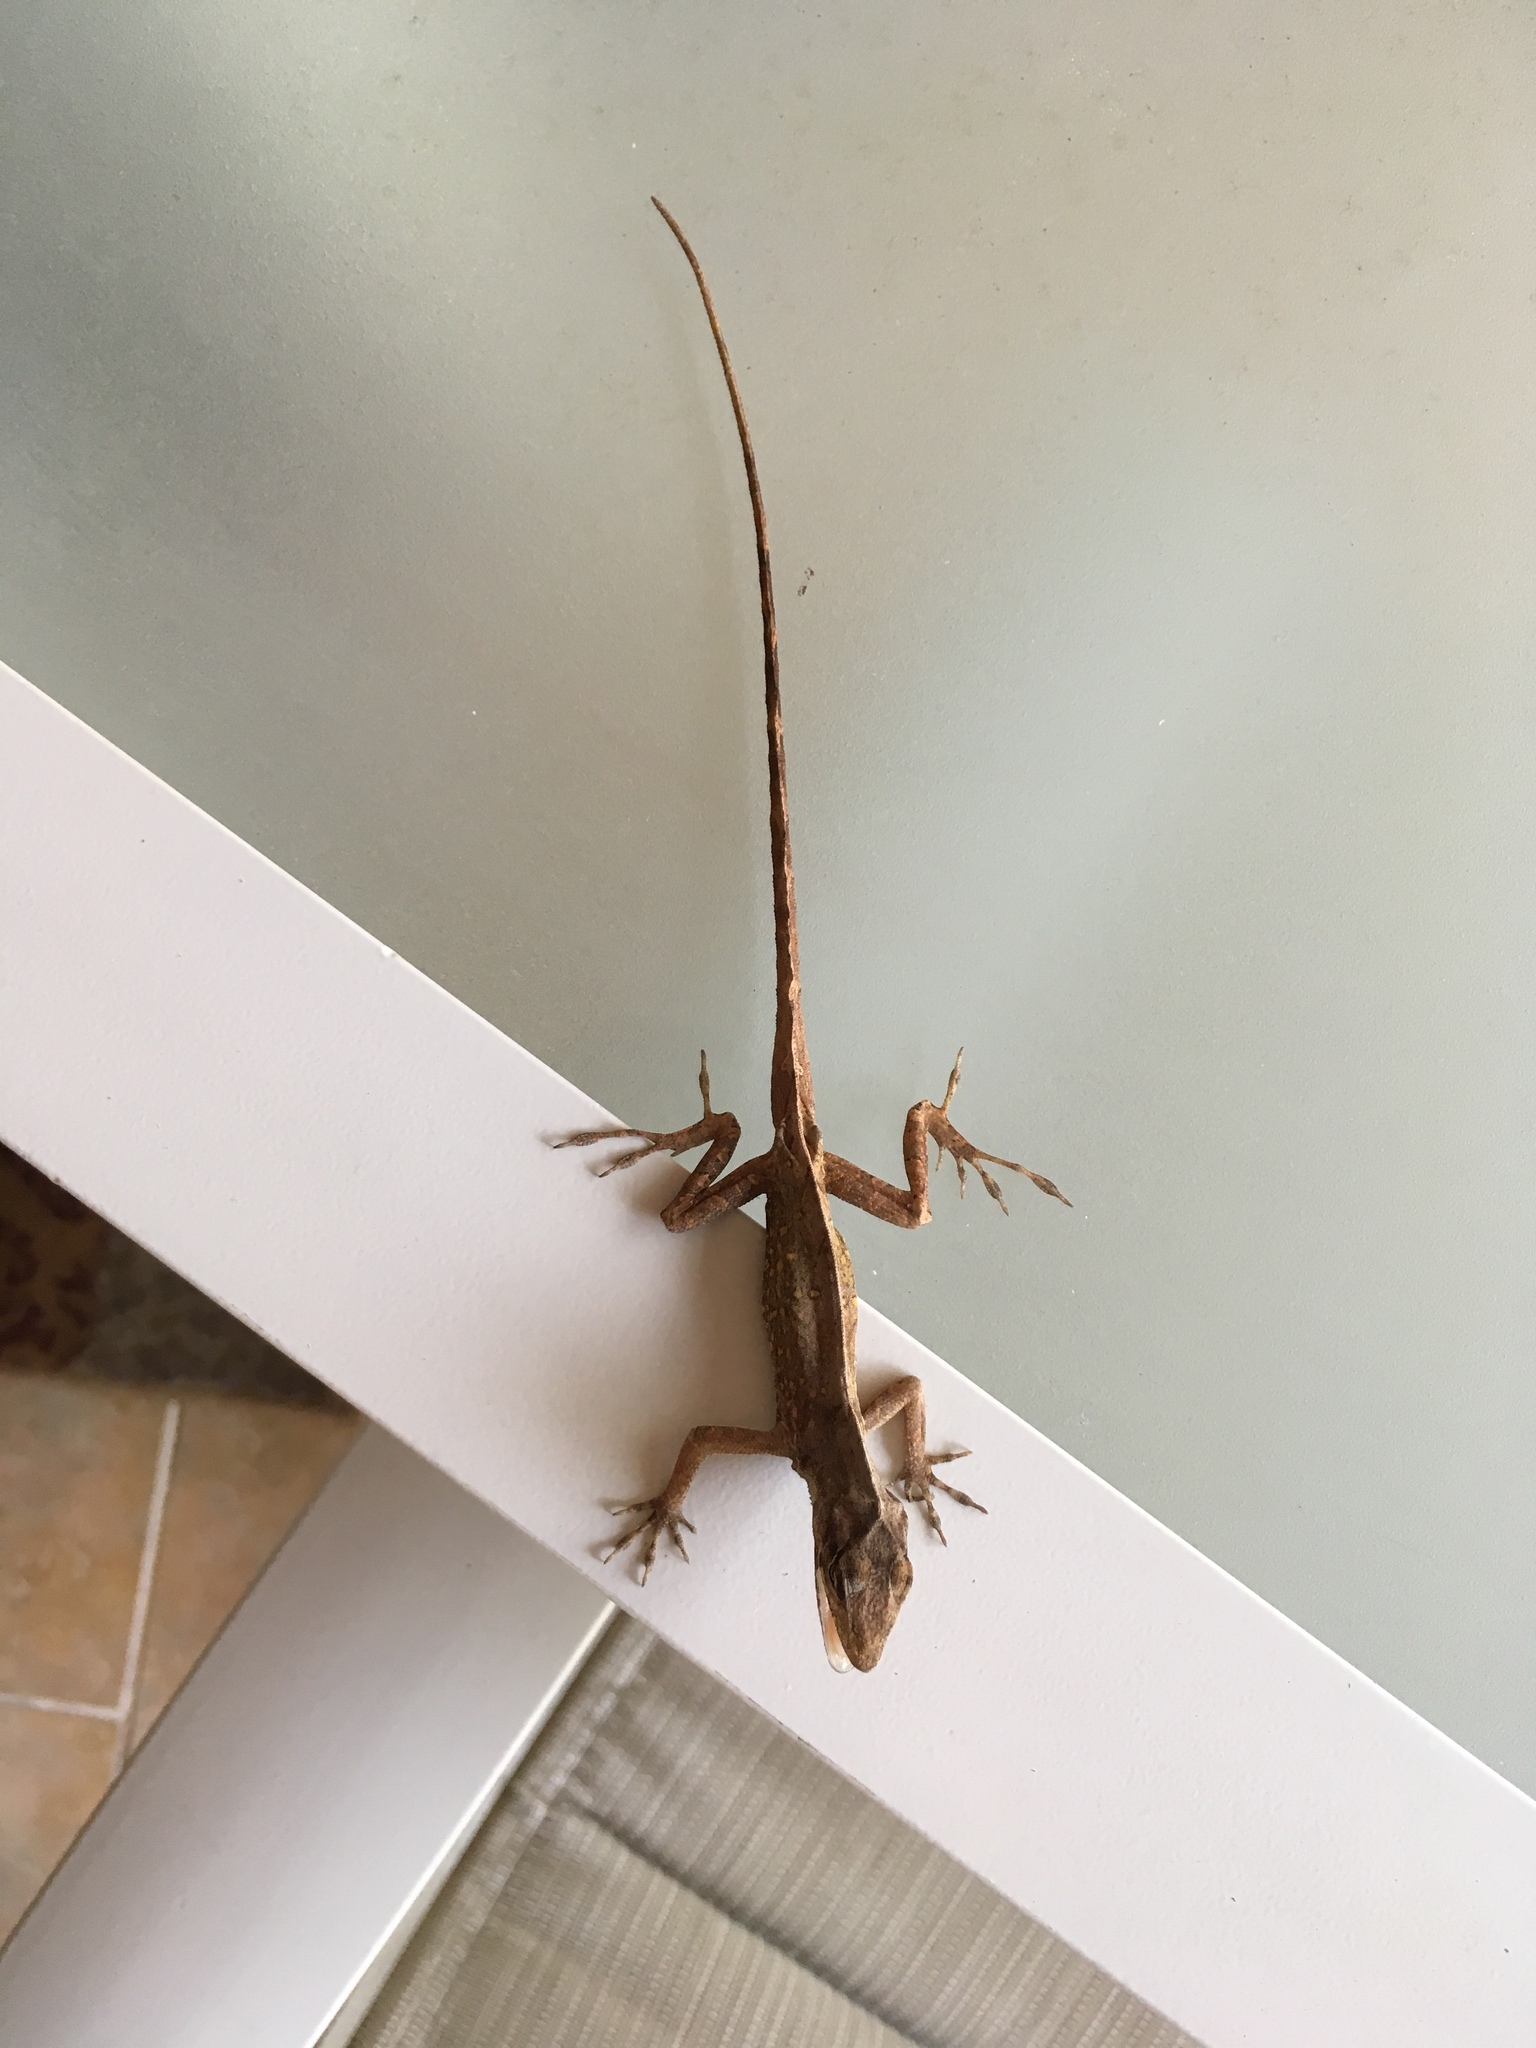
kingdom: Animalia
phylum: Chordata
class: Squamata
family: Dactyloidae
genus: Anolis
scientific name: Anolis sagrei
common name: Brown anole
